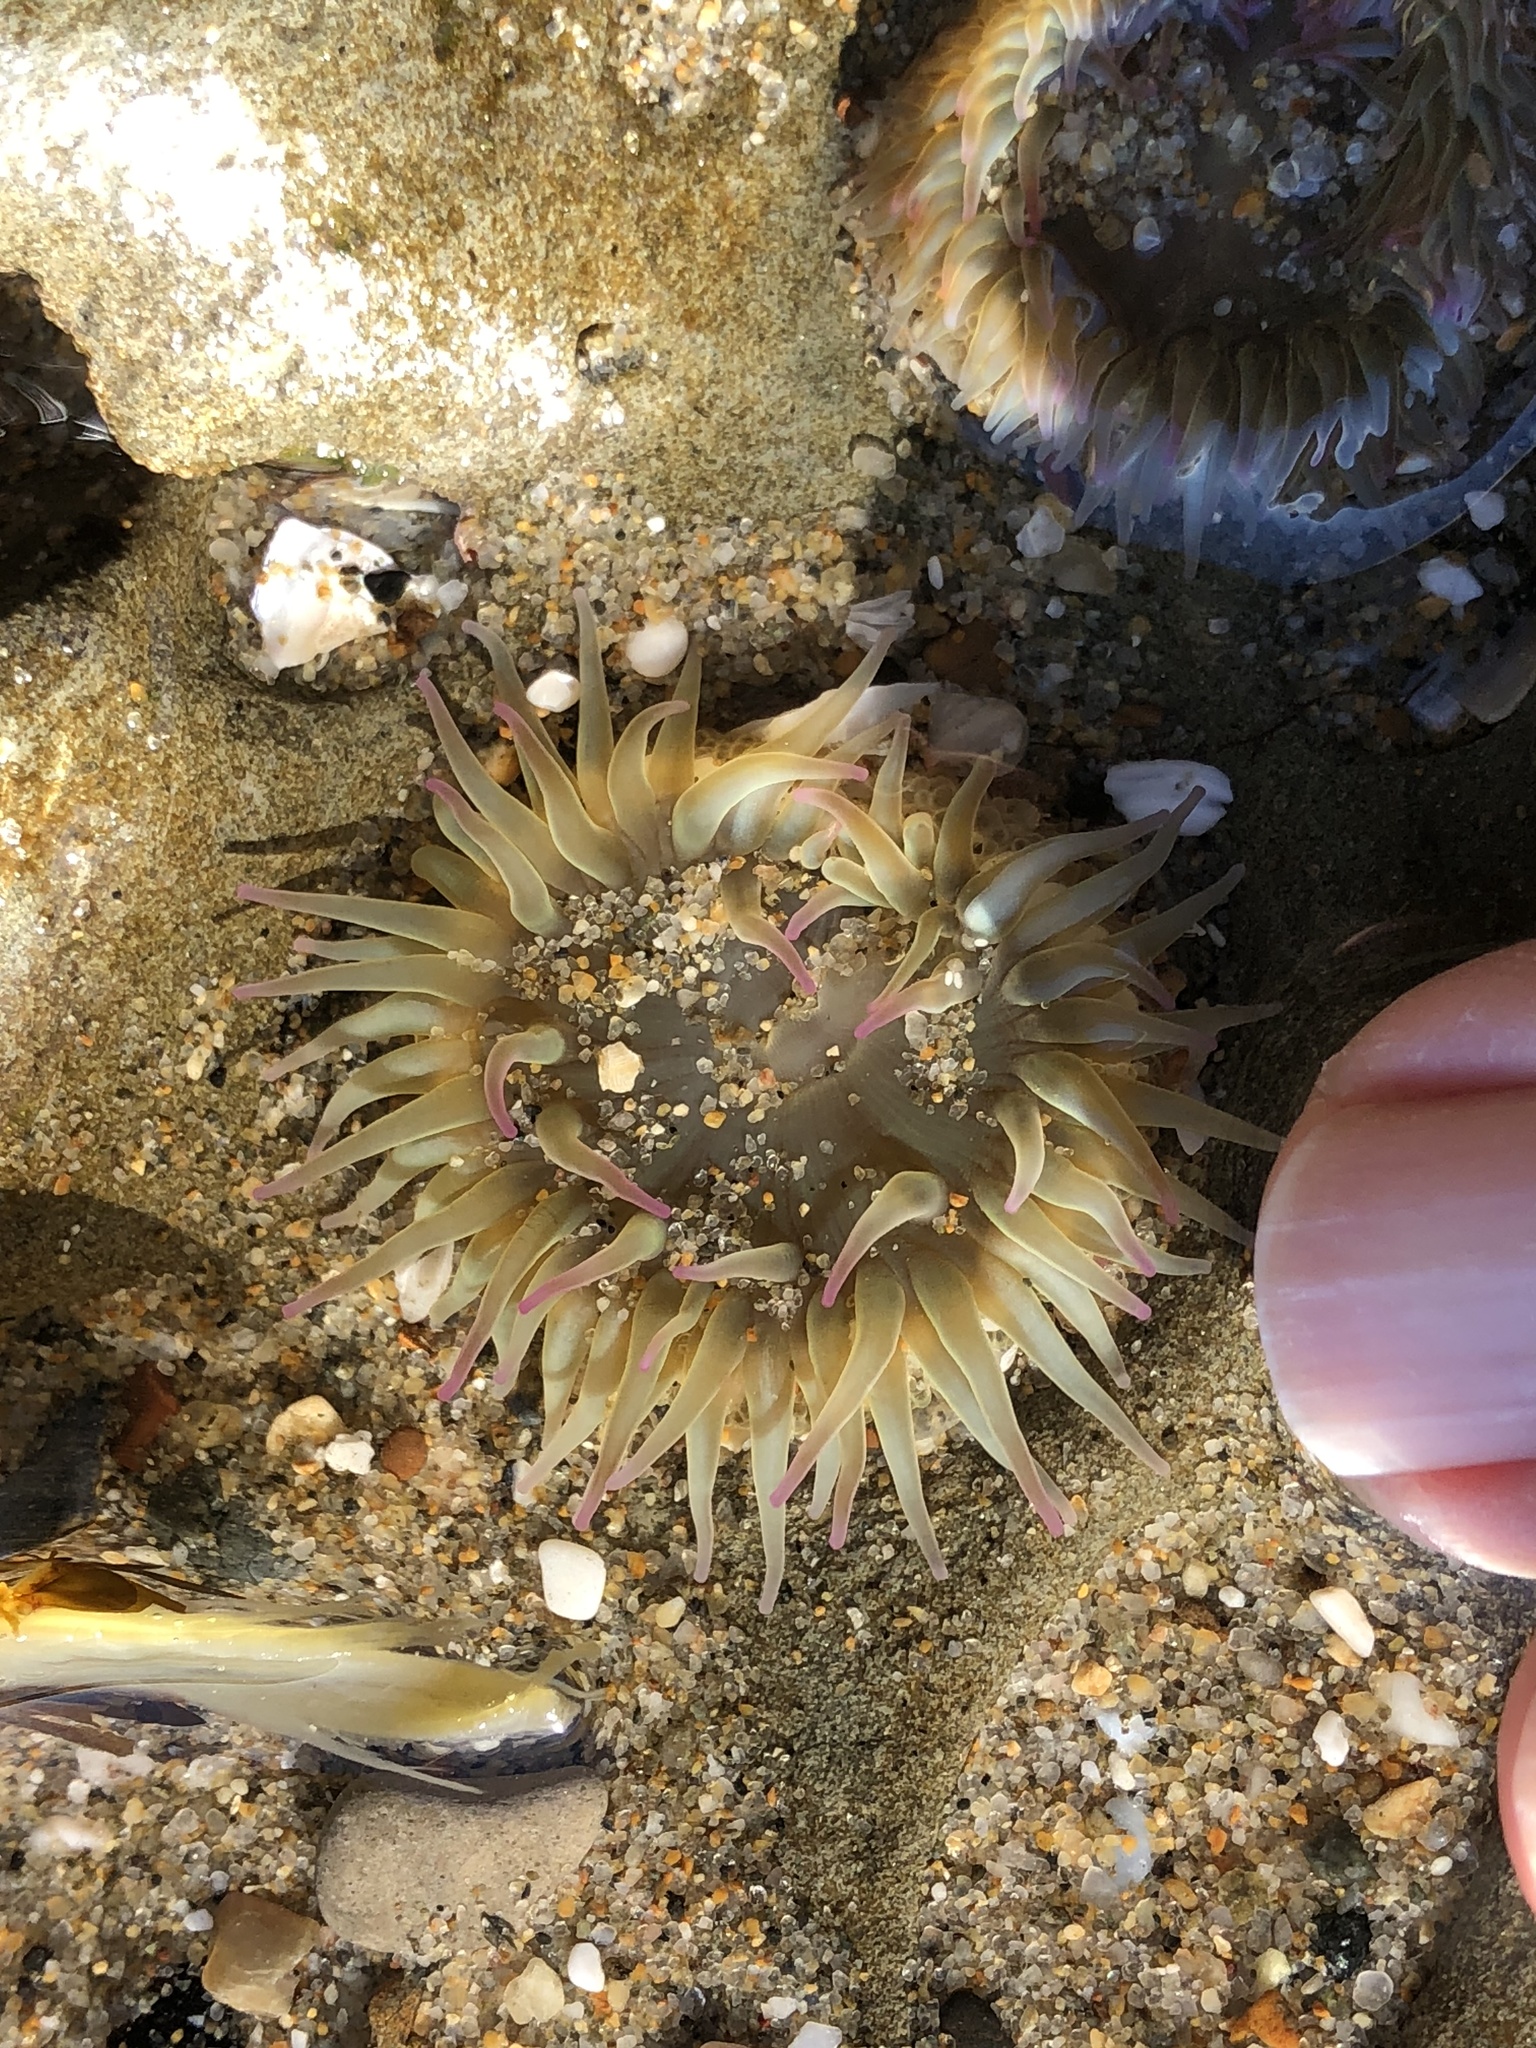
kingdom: Animalia
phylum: Cnidaria
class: Anthozoa
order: Actiniaria
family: Actiniidae
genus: Anthopleura
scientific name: Anthopleura elegantissima
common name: Clonal anemone
